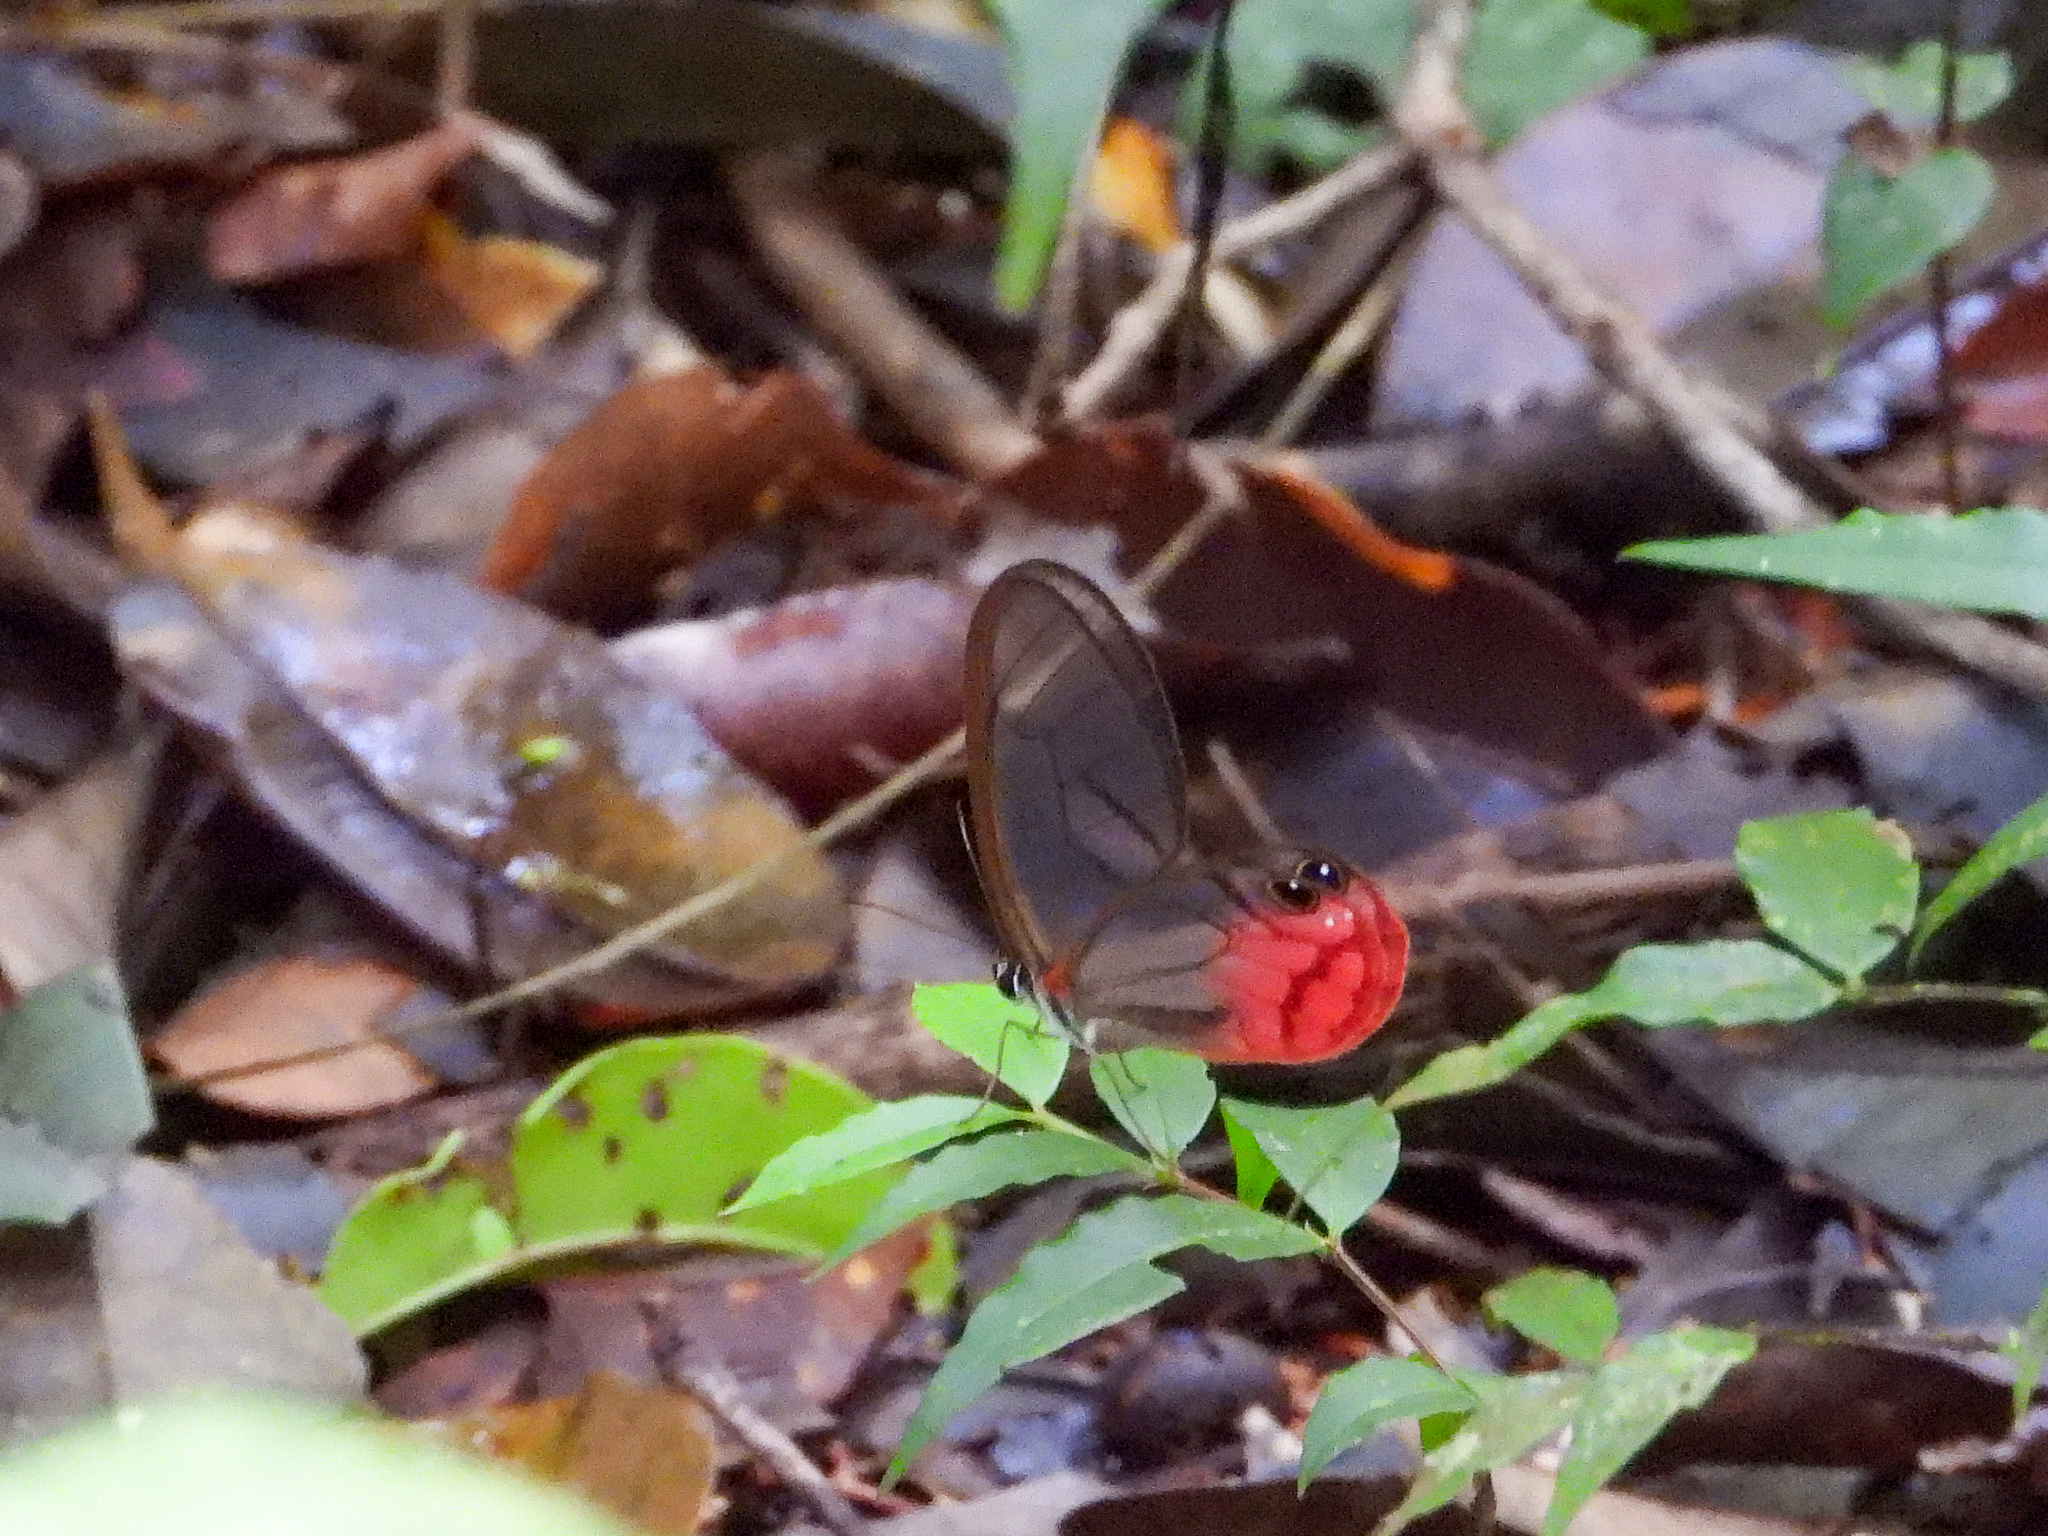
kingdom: Animalia
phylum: Arthropoda
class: Insecta
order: Lepidoptera
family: Nymphalidae
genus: Cithaerias
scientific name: Cithaerias pireta
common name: Rusted clearwing-satyr
